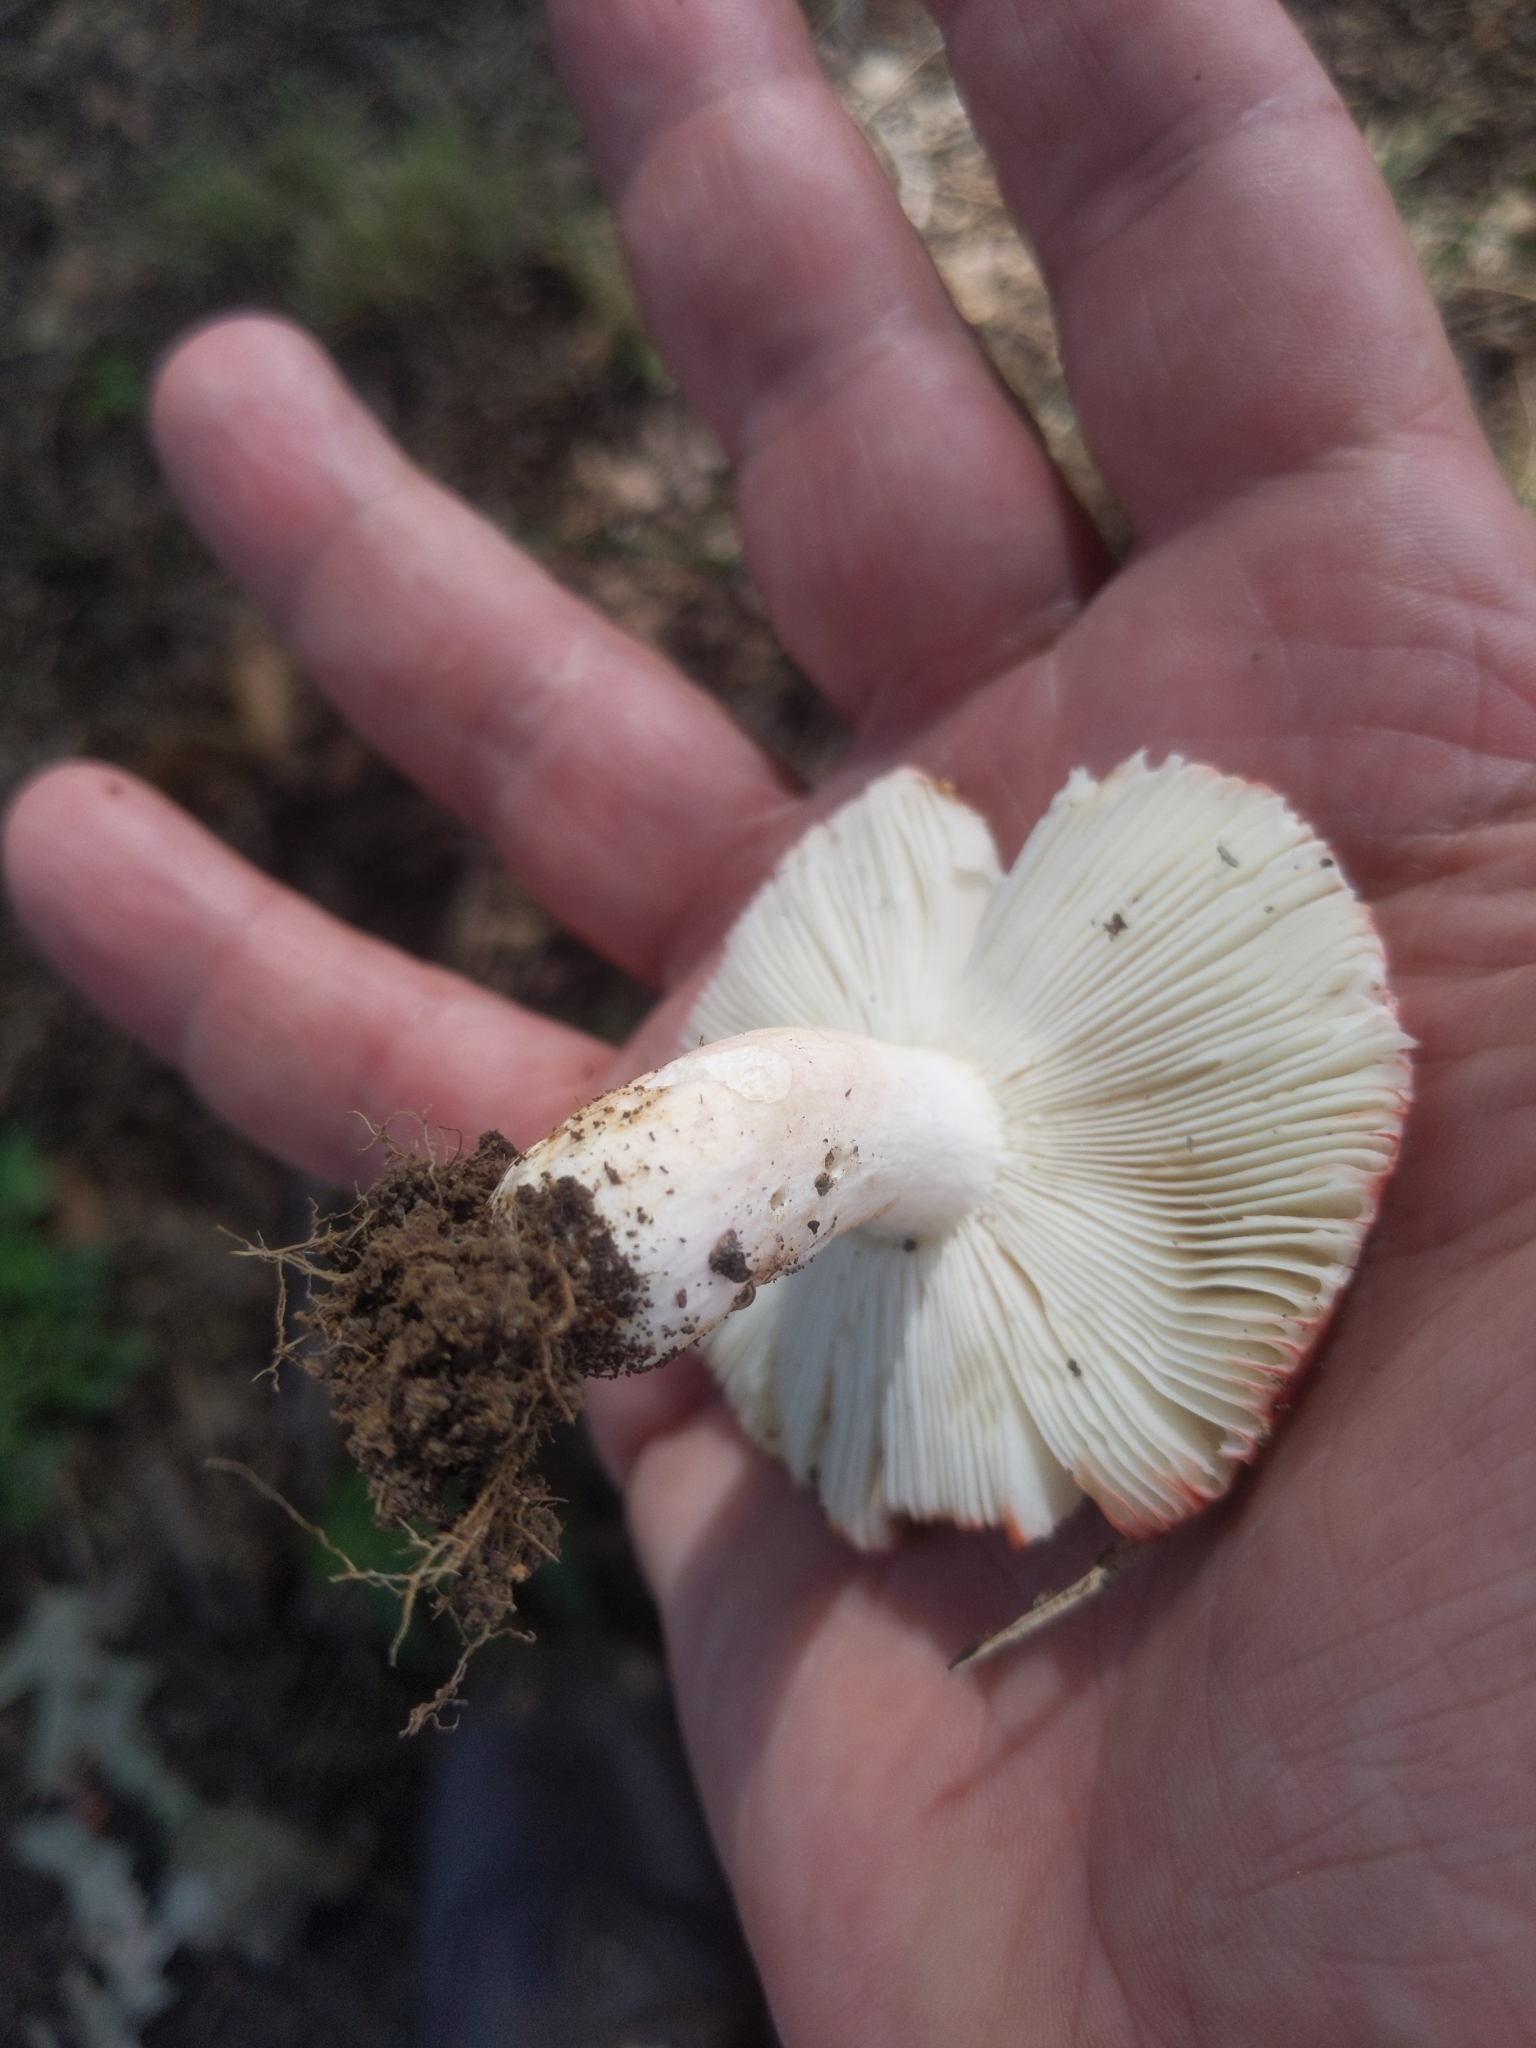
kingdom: Fungi
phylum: Basidiomycota
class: Agaricomycetes
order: Russulales
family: Russulaceae
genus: Russula
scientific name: Russula
